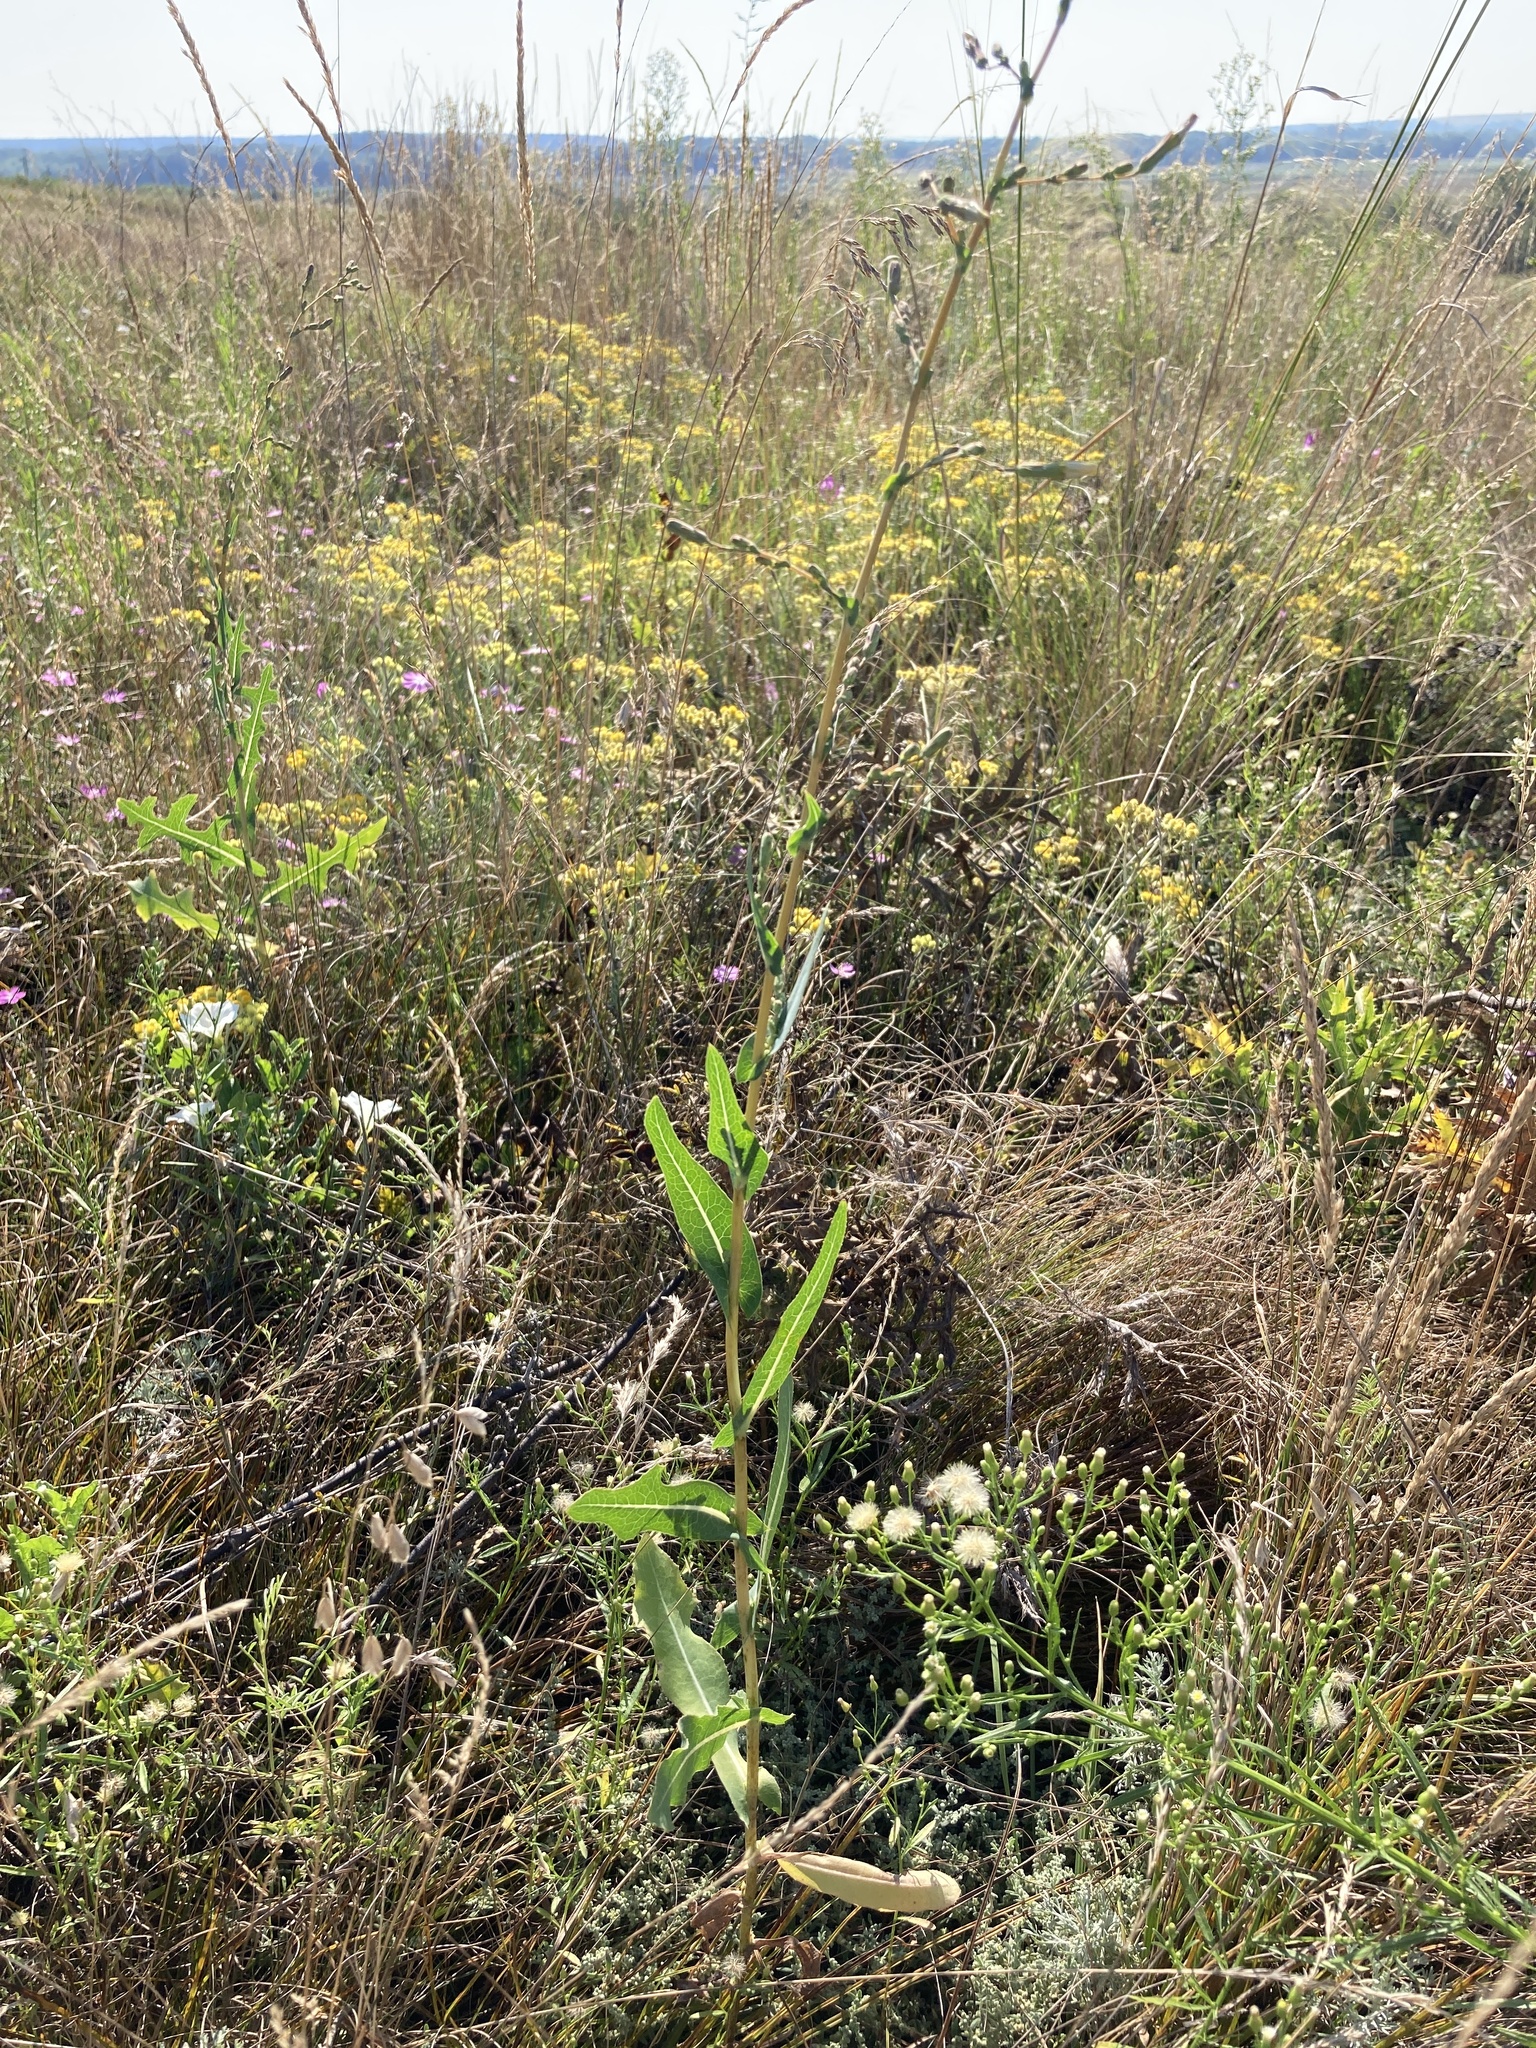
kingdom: Plantae
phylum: Tracheophyta
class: Magnoliopsida
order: Asterales
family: Asteraceae
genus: Lactuca
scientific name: Lactuca serriola
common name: Prickly lettuce
